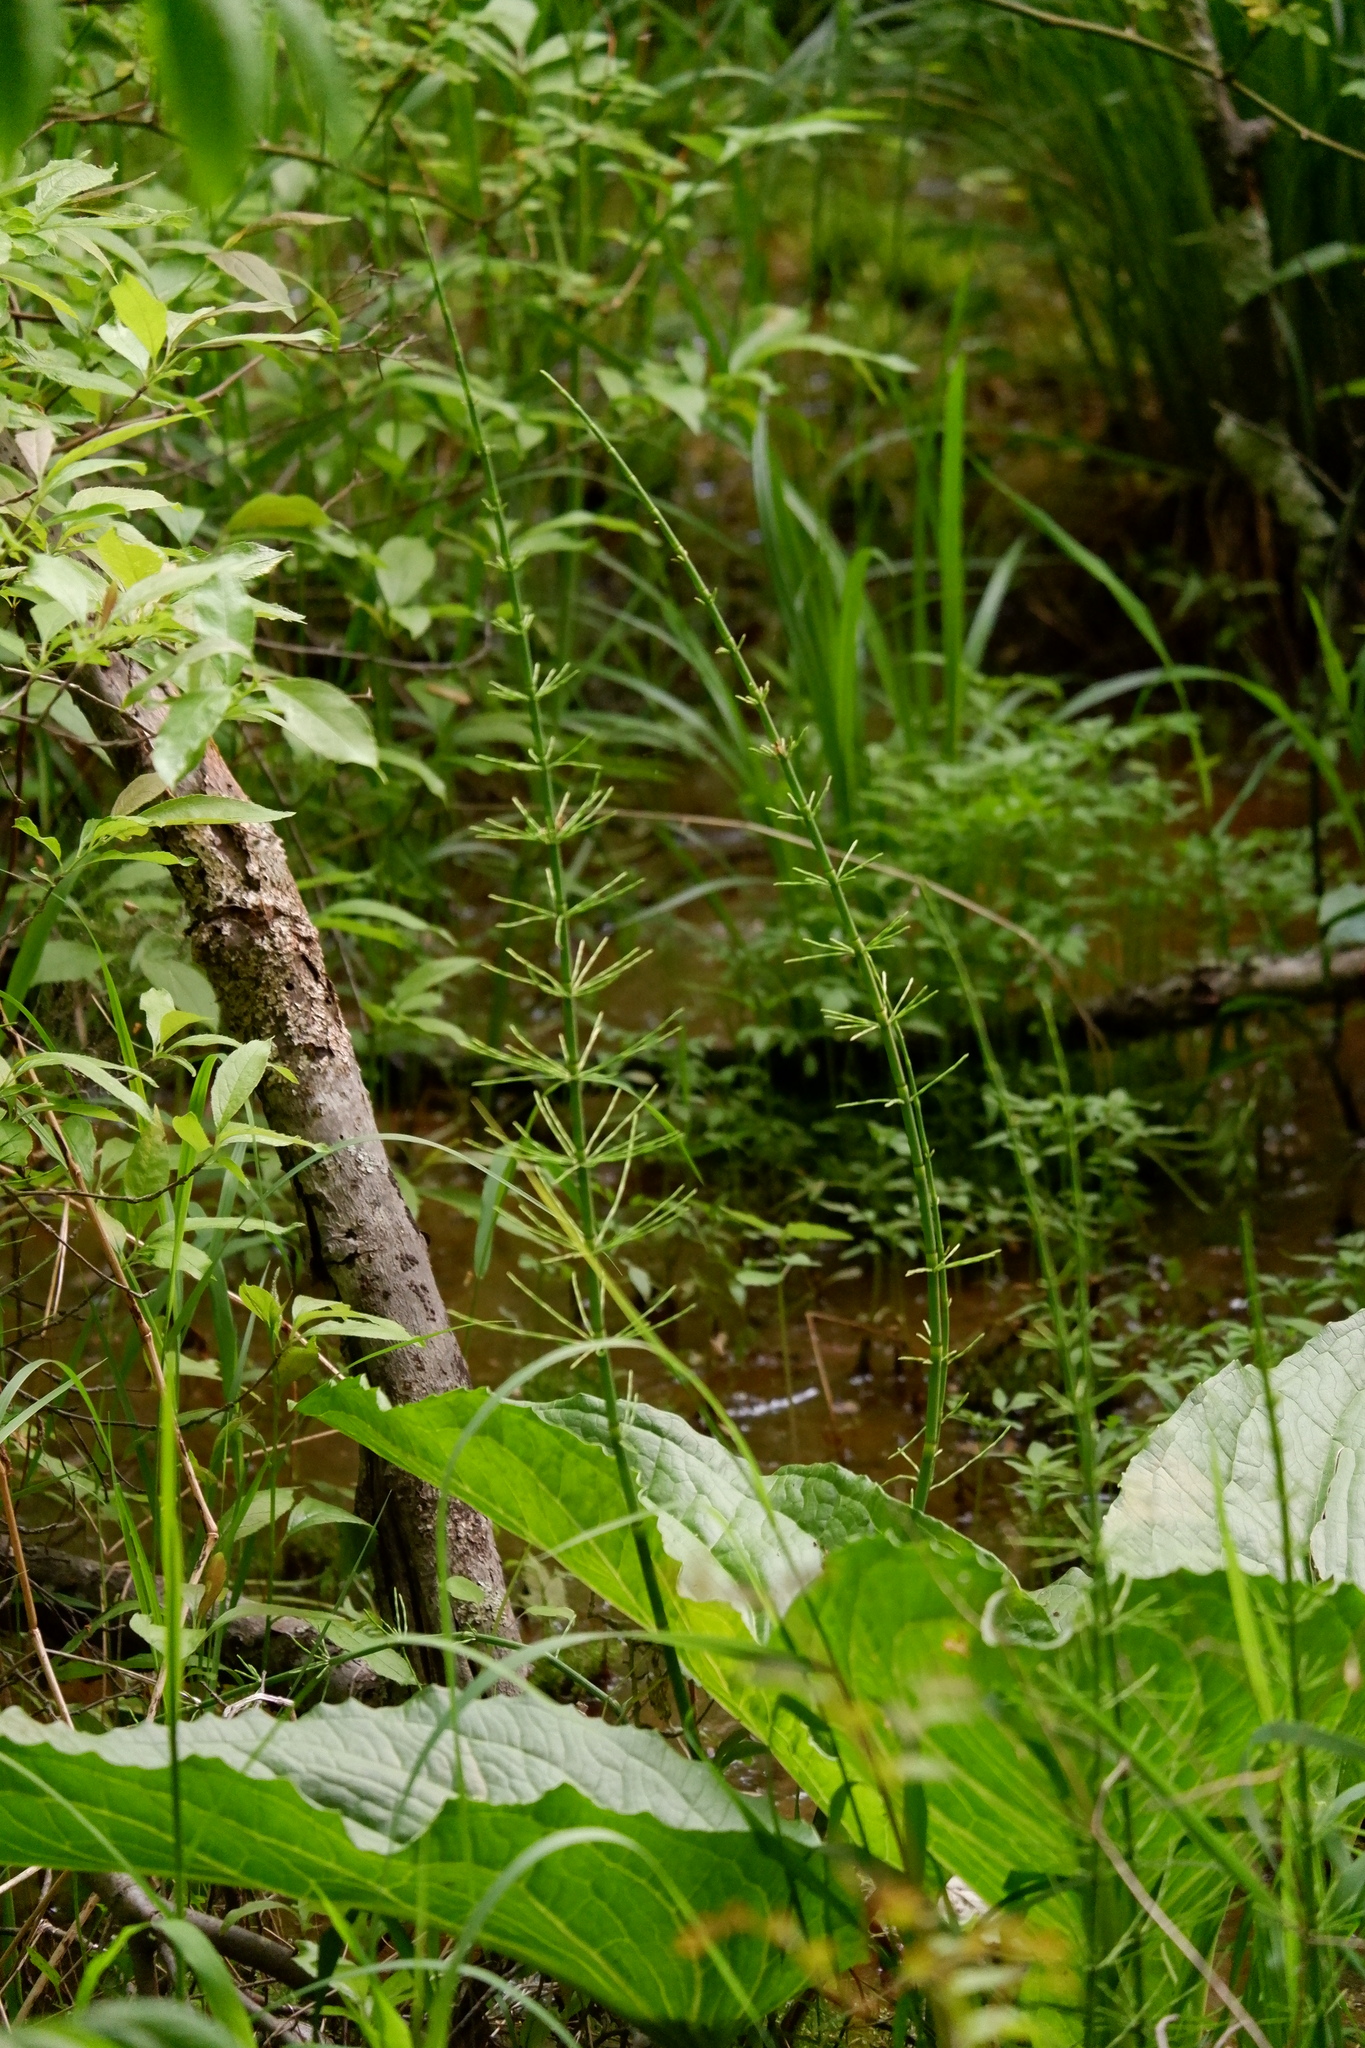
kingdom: Plantae
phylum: Tracheophyta
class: Polypodiopsida
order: Equisetales
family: Equisetaceae
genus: Equisetum
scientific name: Equisetum fluviatile
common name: Water horsetail
